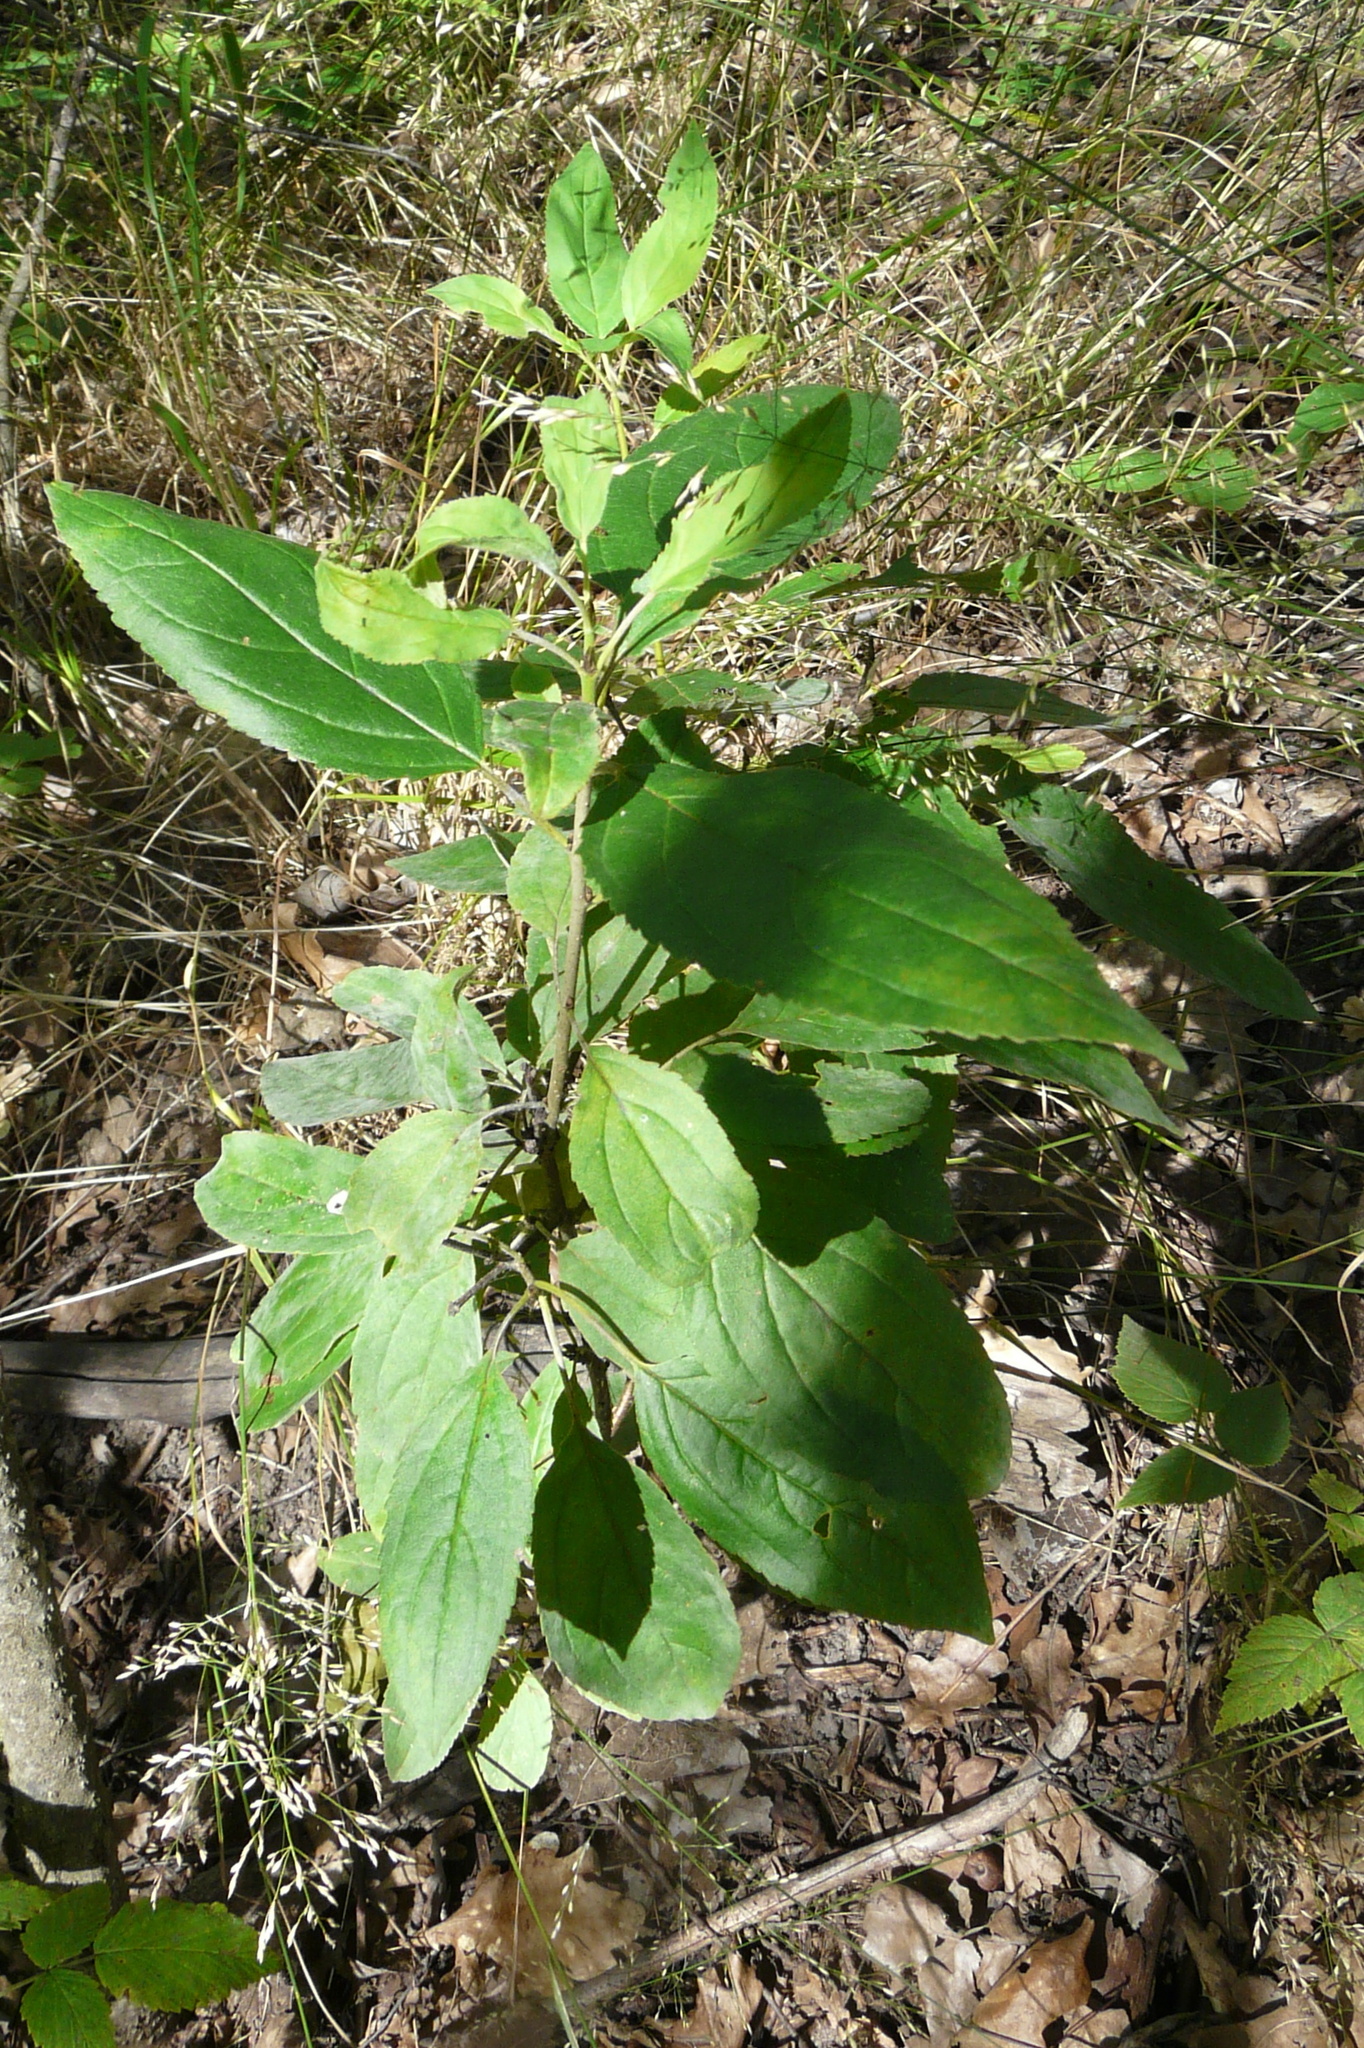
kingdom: Plantae
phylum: Tracheophyta
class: Magnoliopsida
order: Rosales
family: Rhamnaceae
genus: Rhamnus
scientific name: Rhamnus cathartica
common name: Common buckthorn
